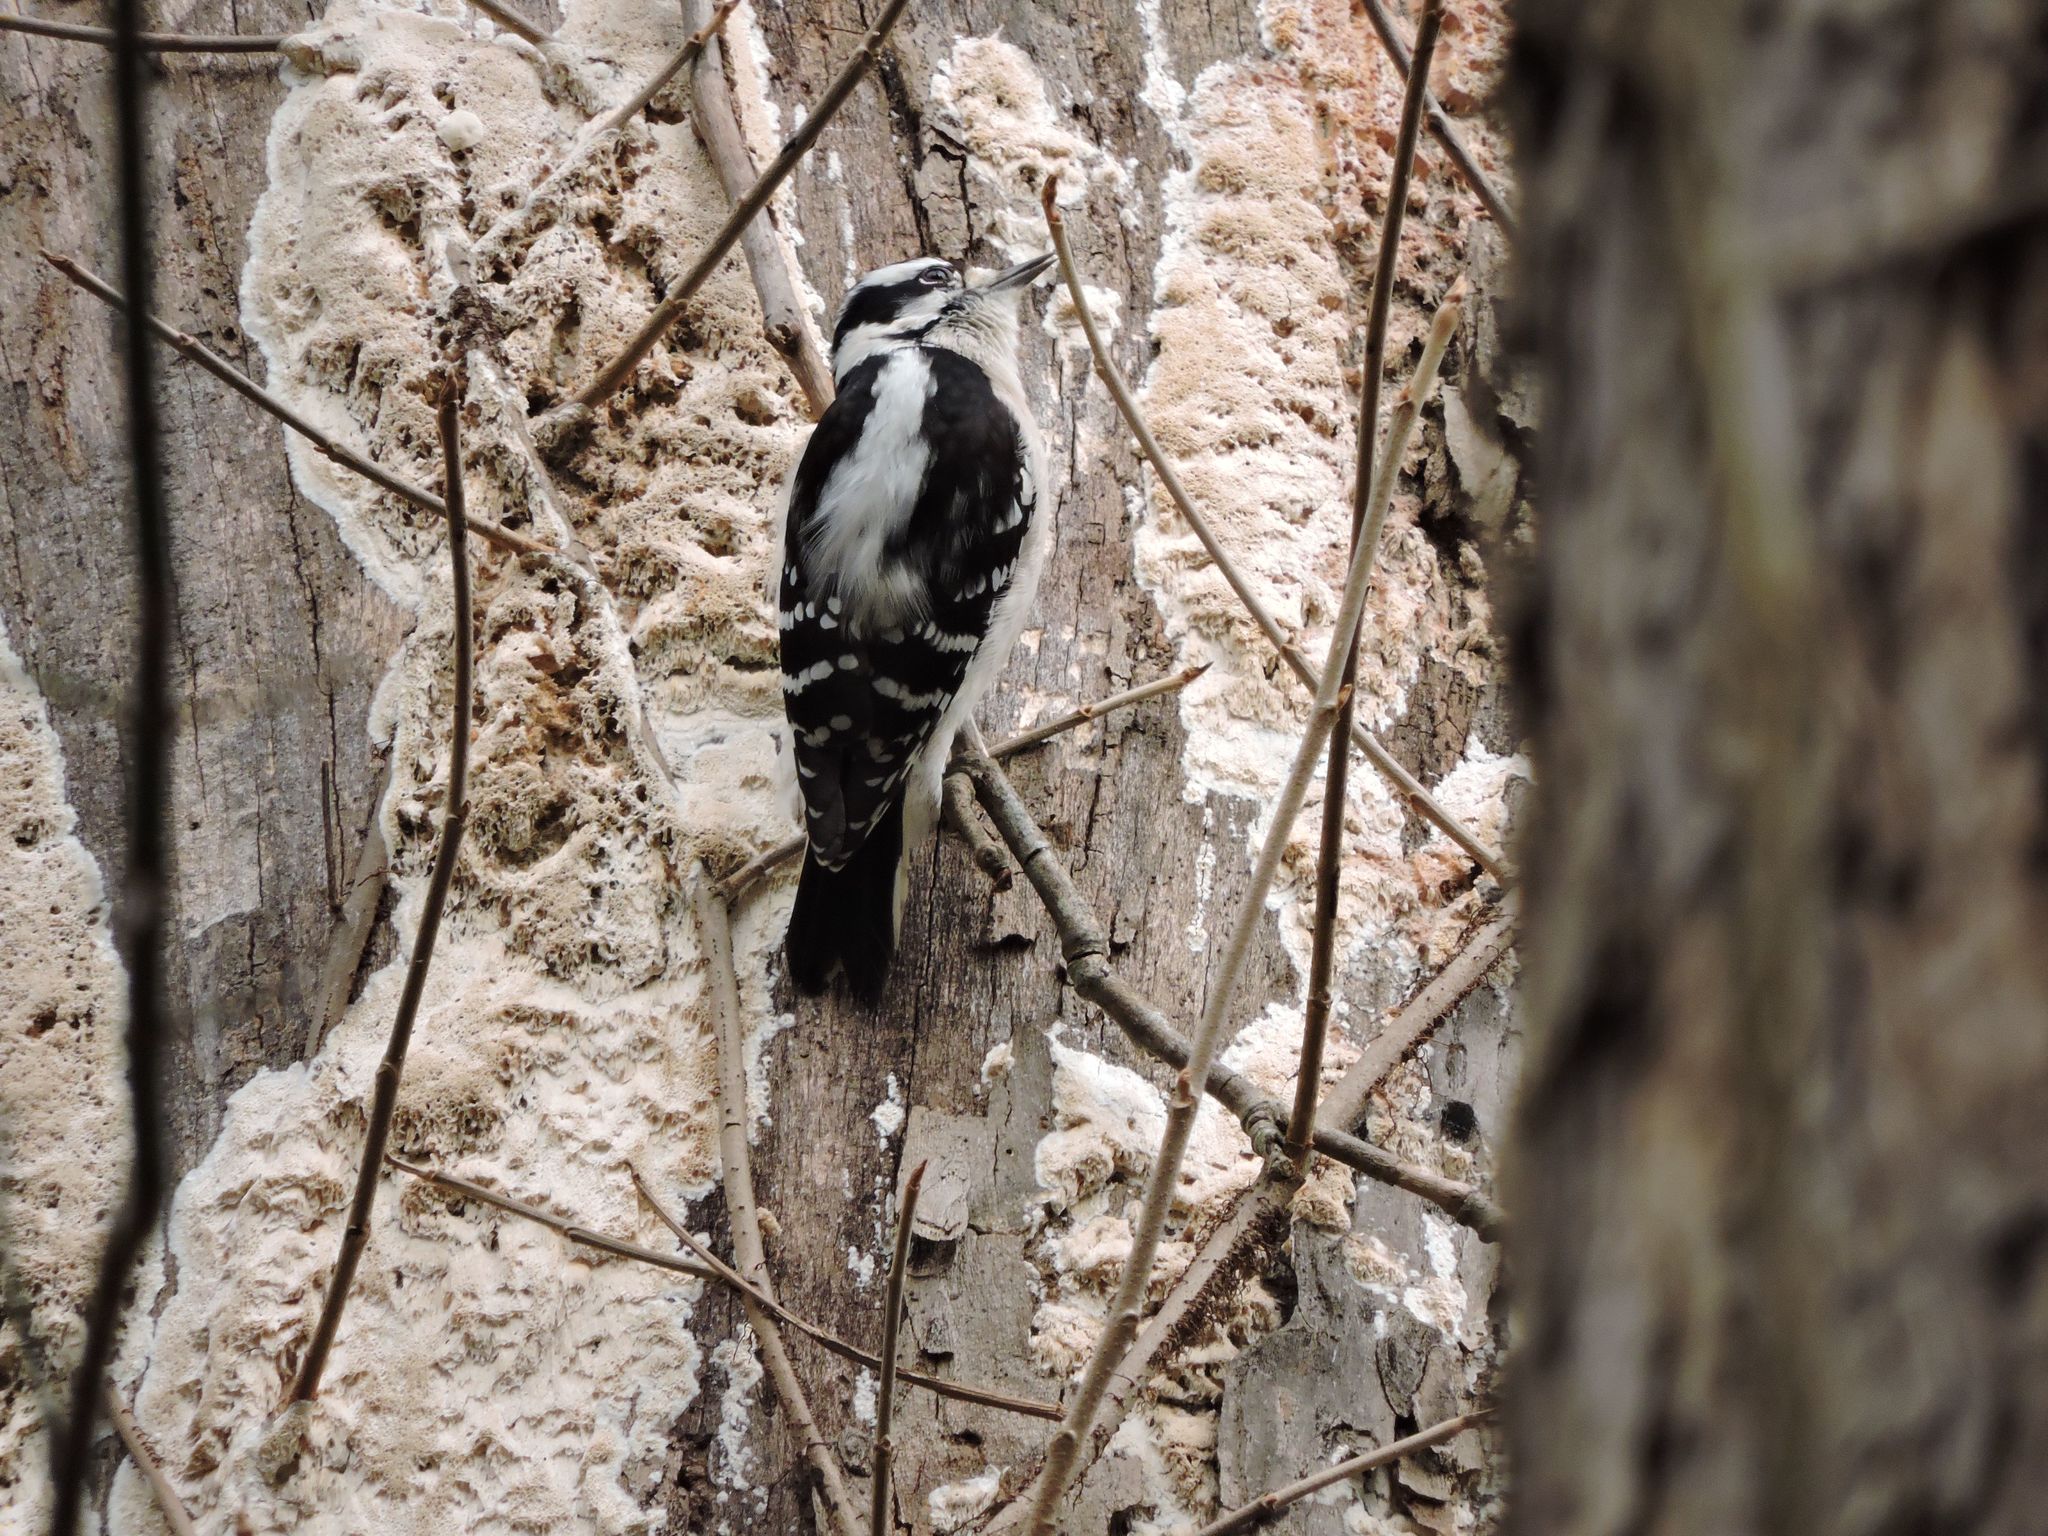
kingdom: Animalia
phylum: Chordata
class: Aves
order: Piciformes
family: Picidae
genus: Dryobates
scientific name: Dryobates pubescens
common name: Downy woodpecker
